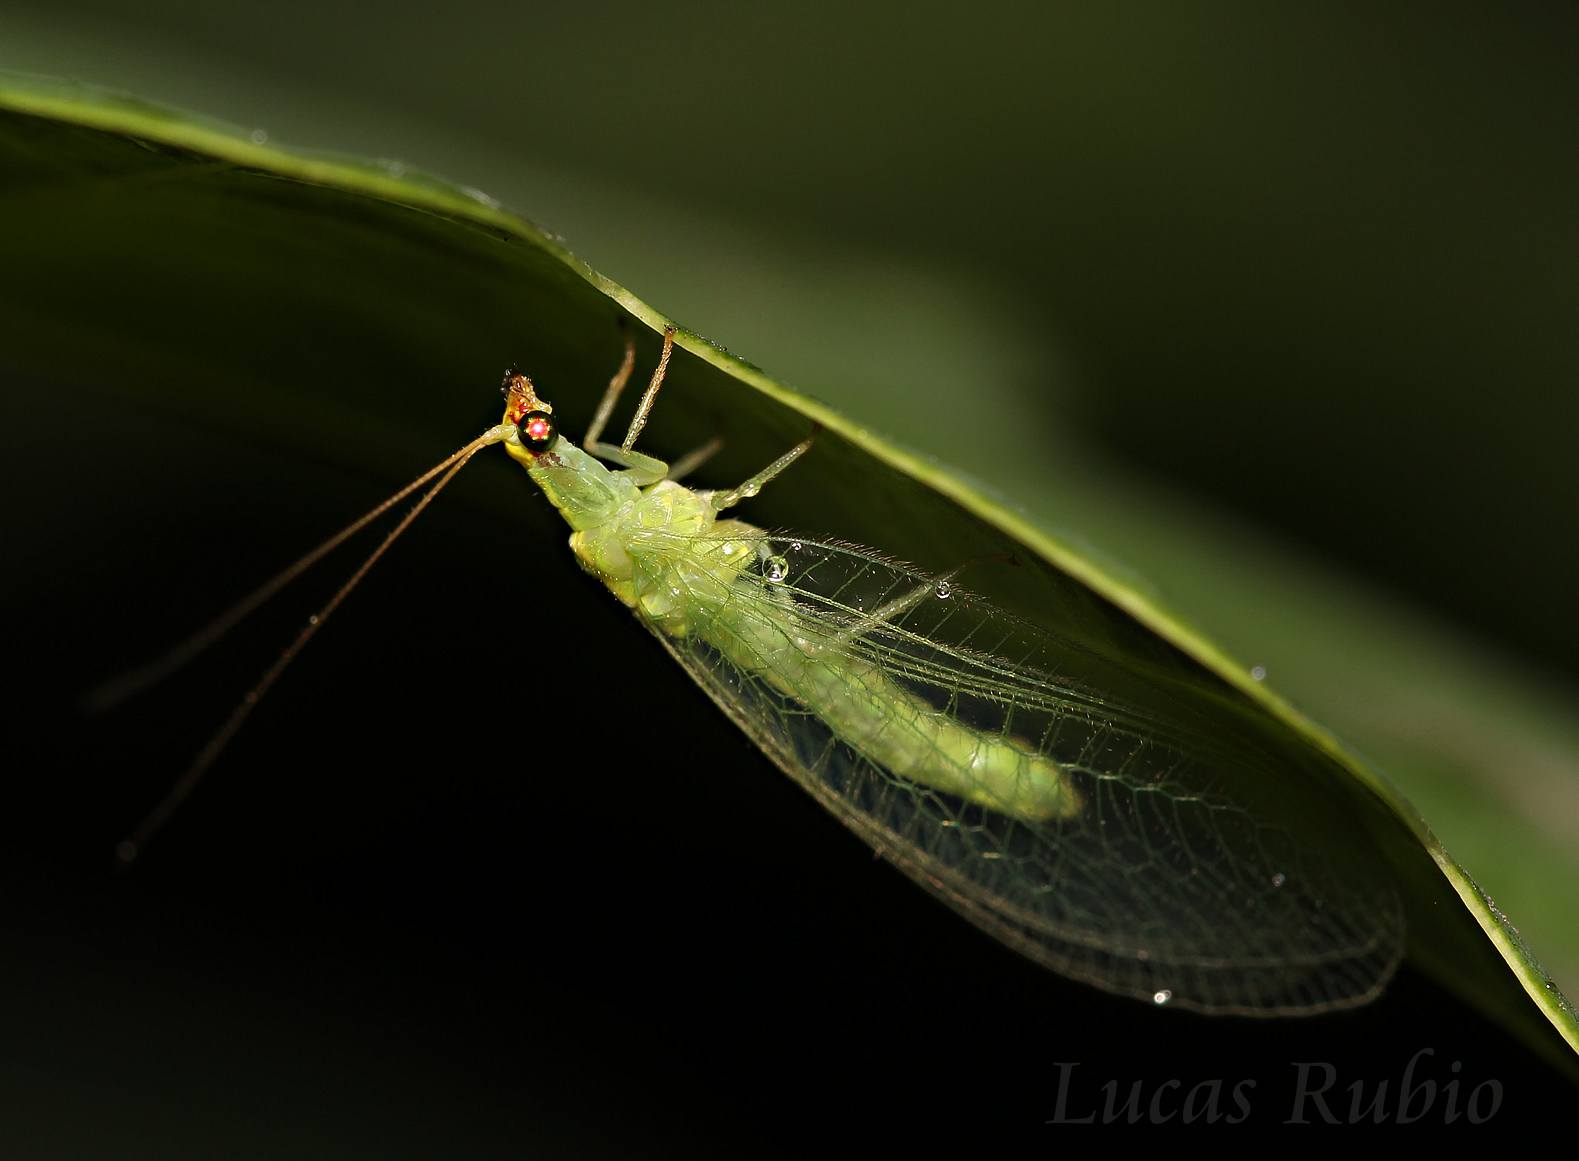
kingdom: Animalia
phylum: Arthropoda
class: Insecta
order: Neuroptera
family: Chrysopidae
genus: Chrysoperla
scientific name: Chrysoperla externa
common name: Green lacewing
